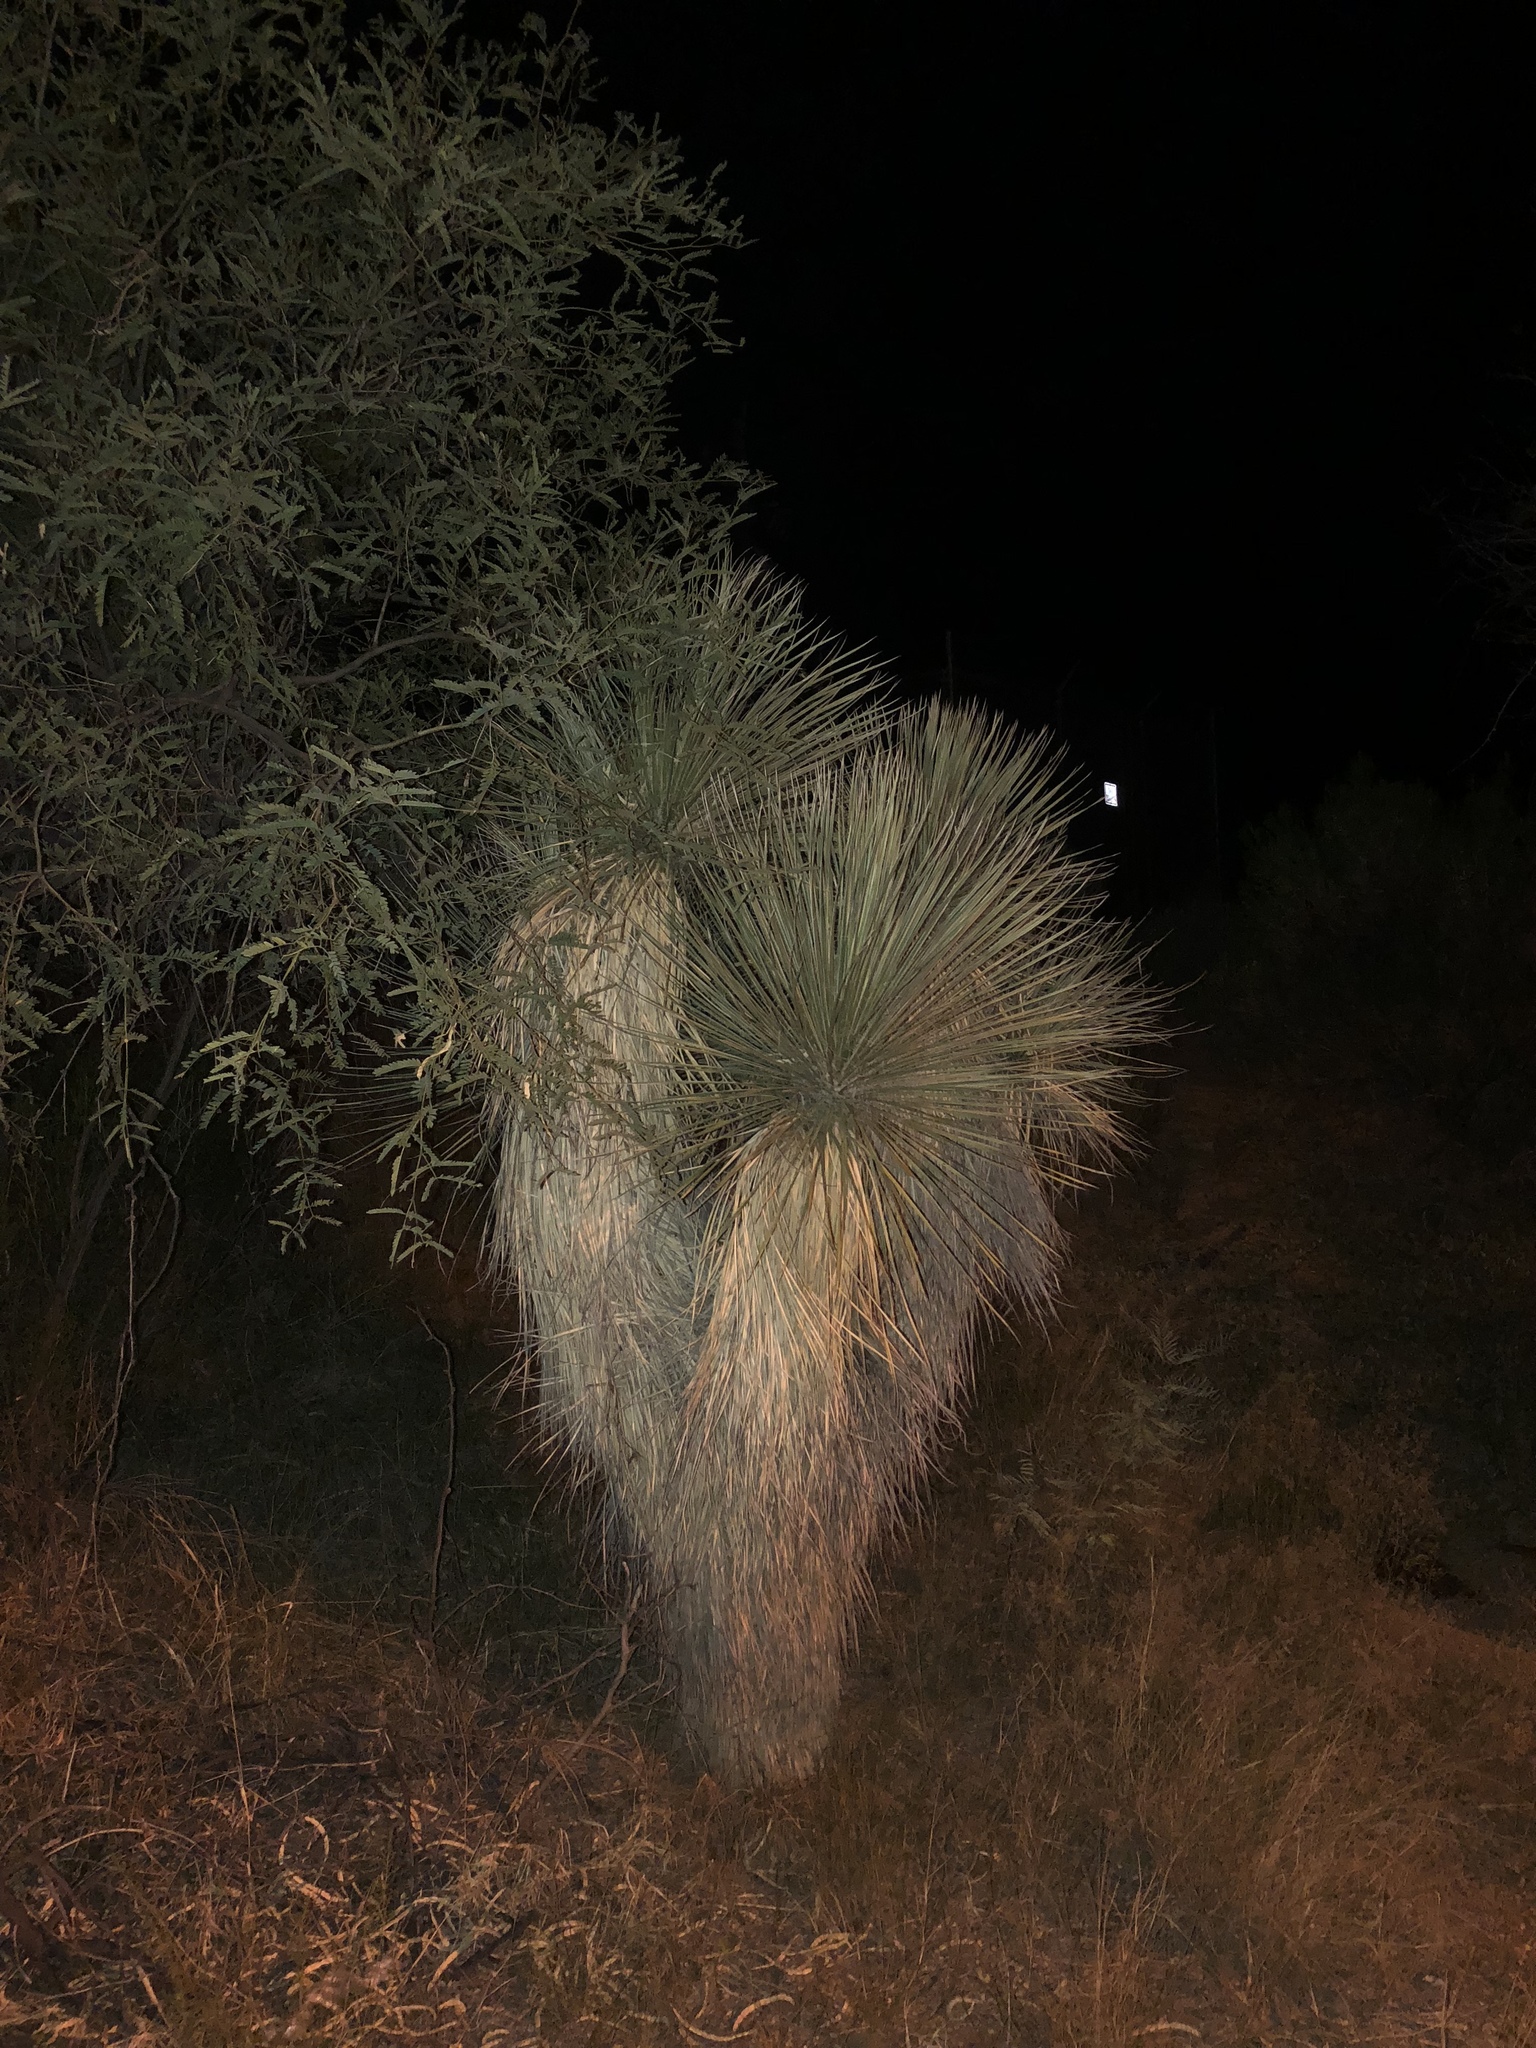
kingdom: Plantae
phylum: Tracheophyta
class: Liliopsida
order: Asparagales
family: Asparagaceae
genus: Yucca
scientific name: Yucca elata
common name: Palmella
